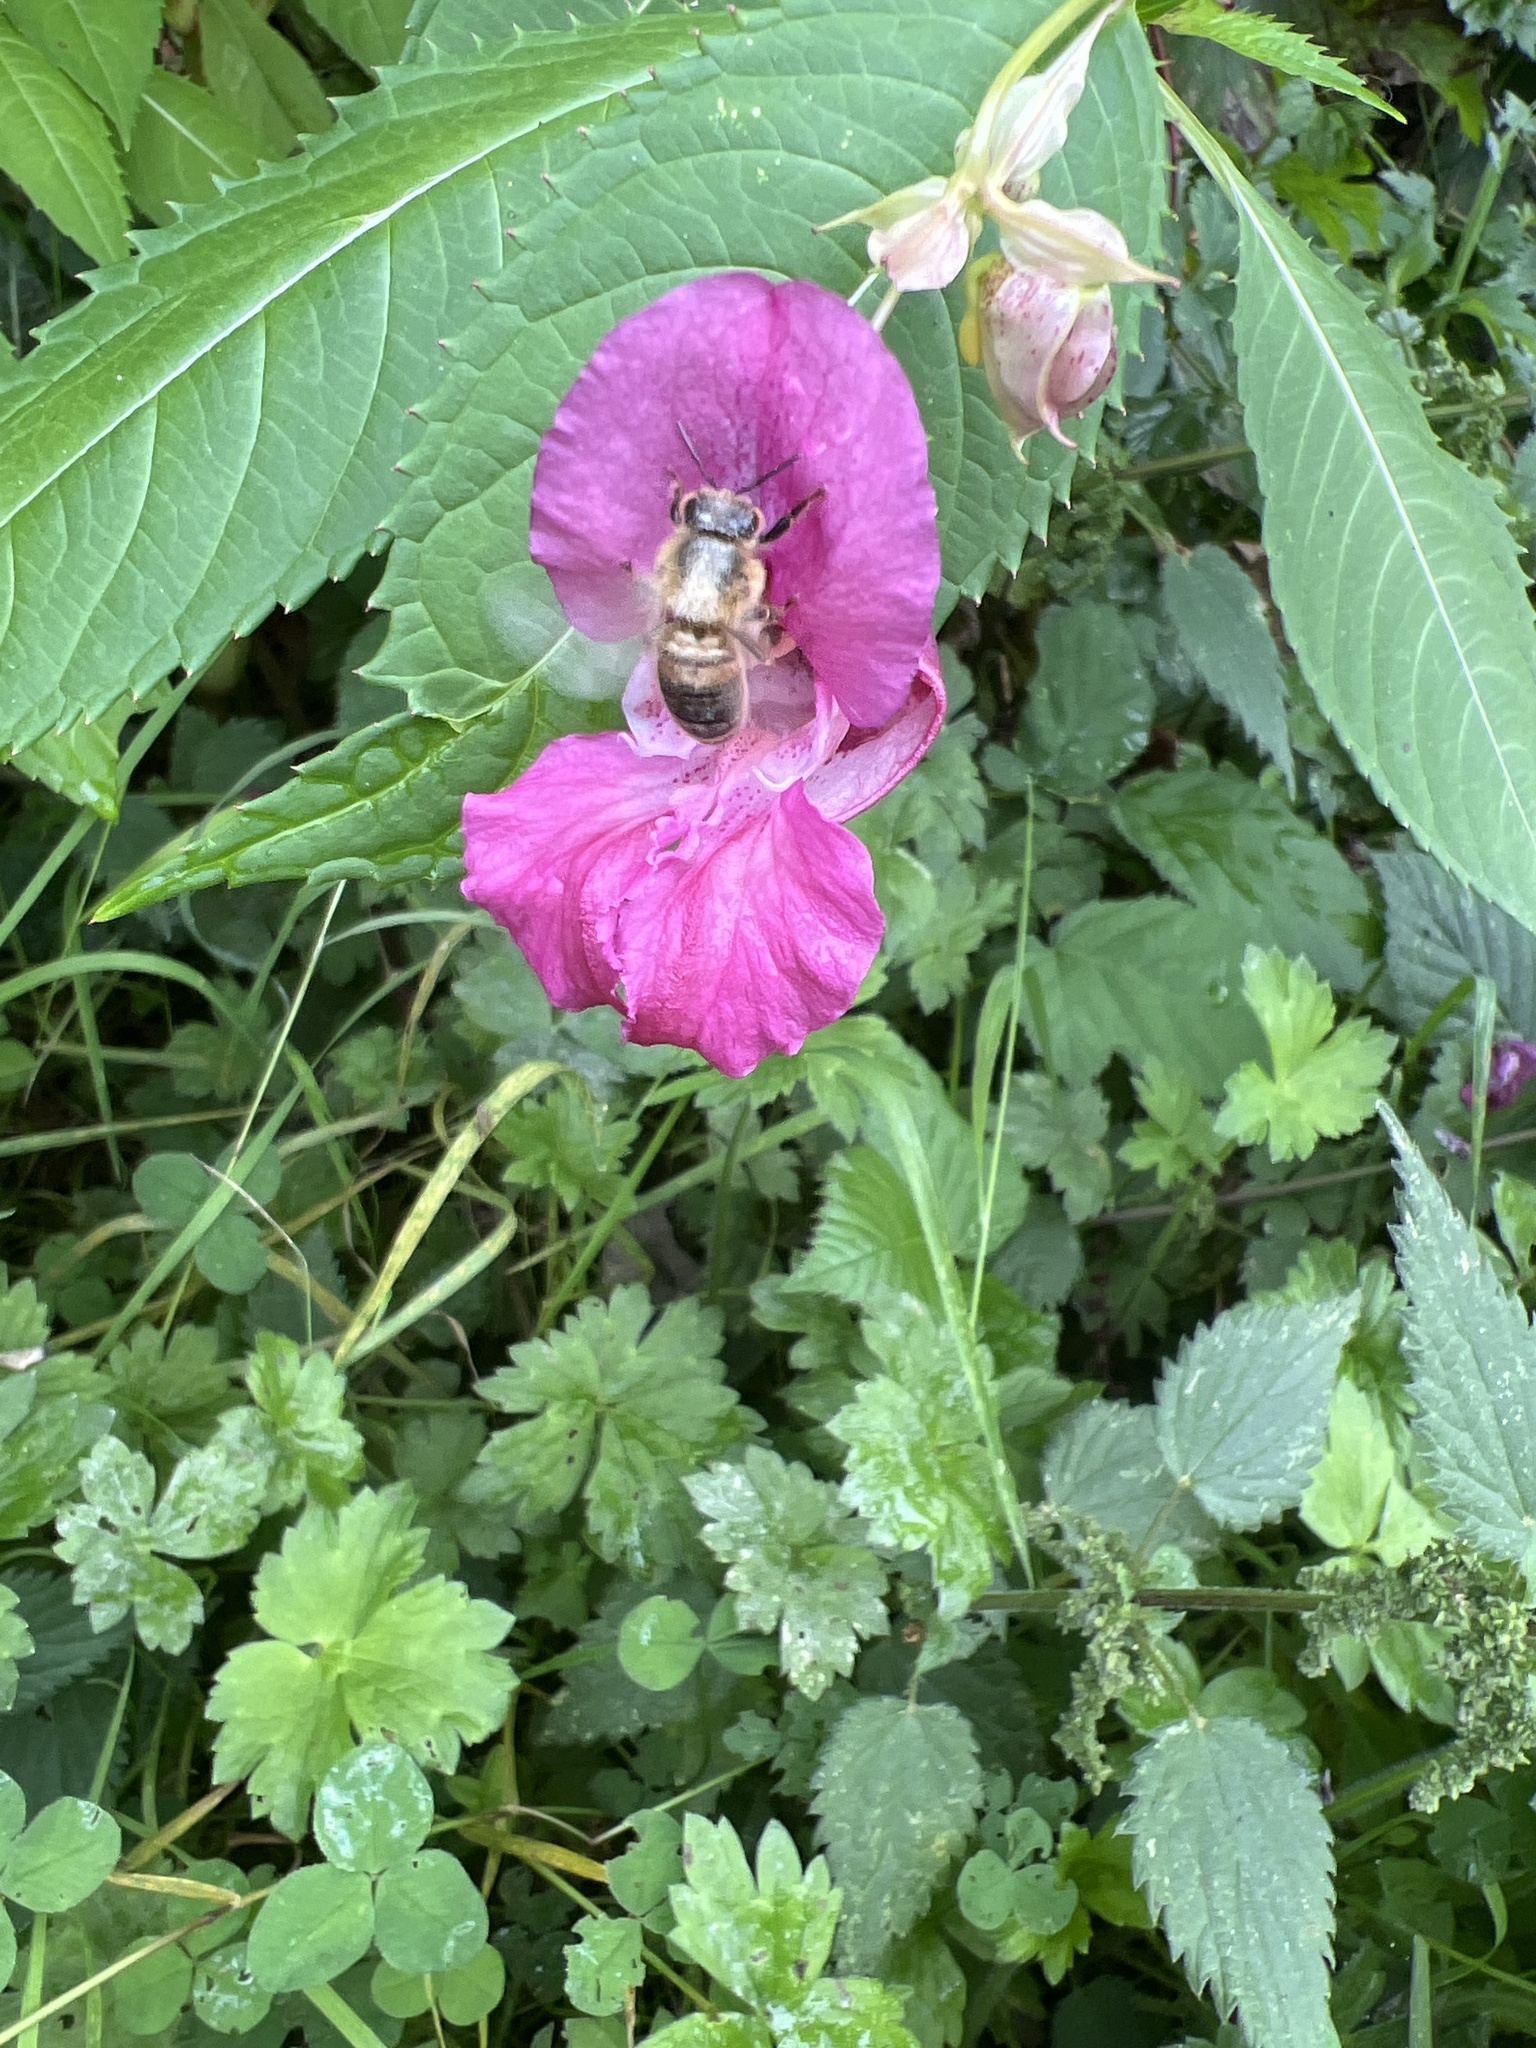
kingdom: Animalia
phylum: Arthropoda
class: Insecta
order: Hymenoptera
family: Apidae
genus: Apis
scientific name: Apis mellifera
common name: Honey bee
